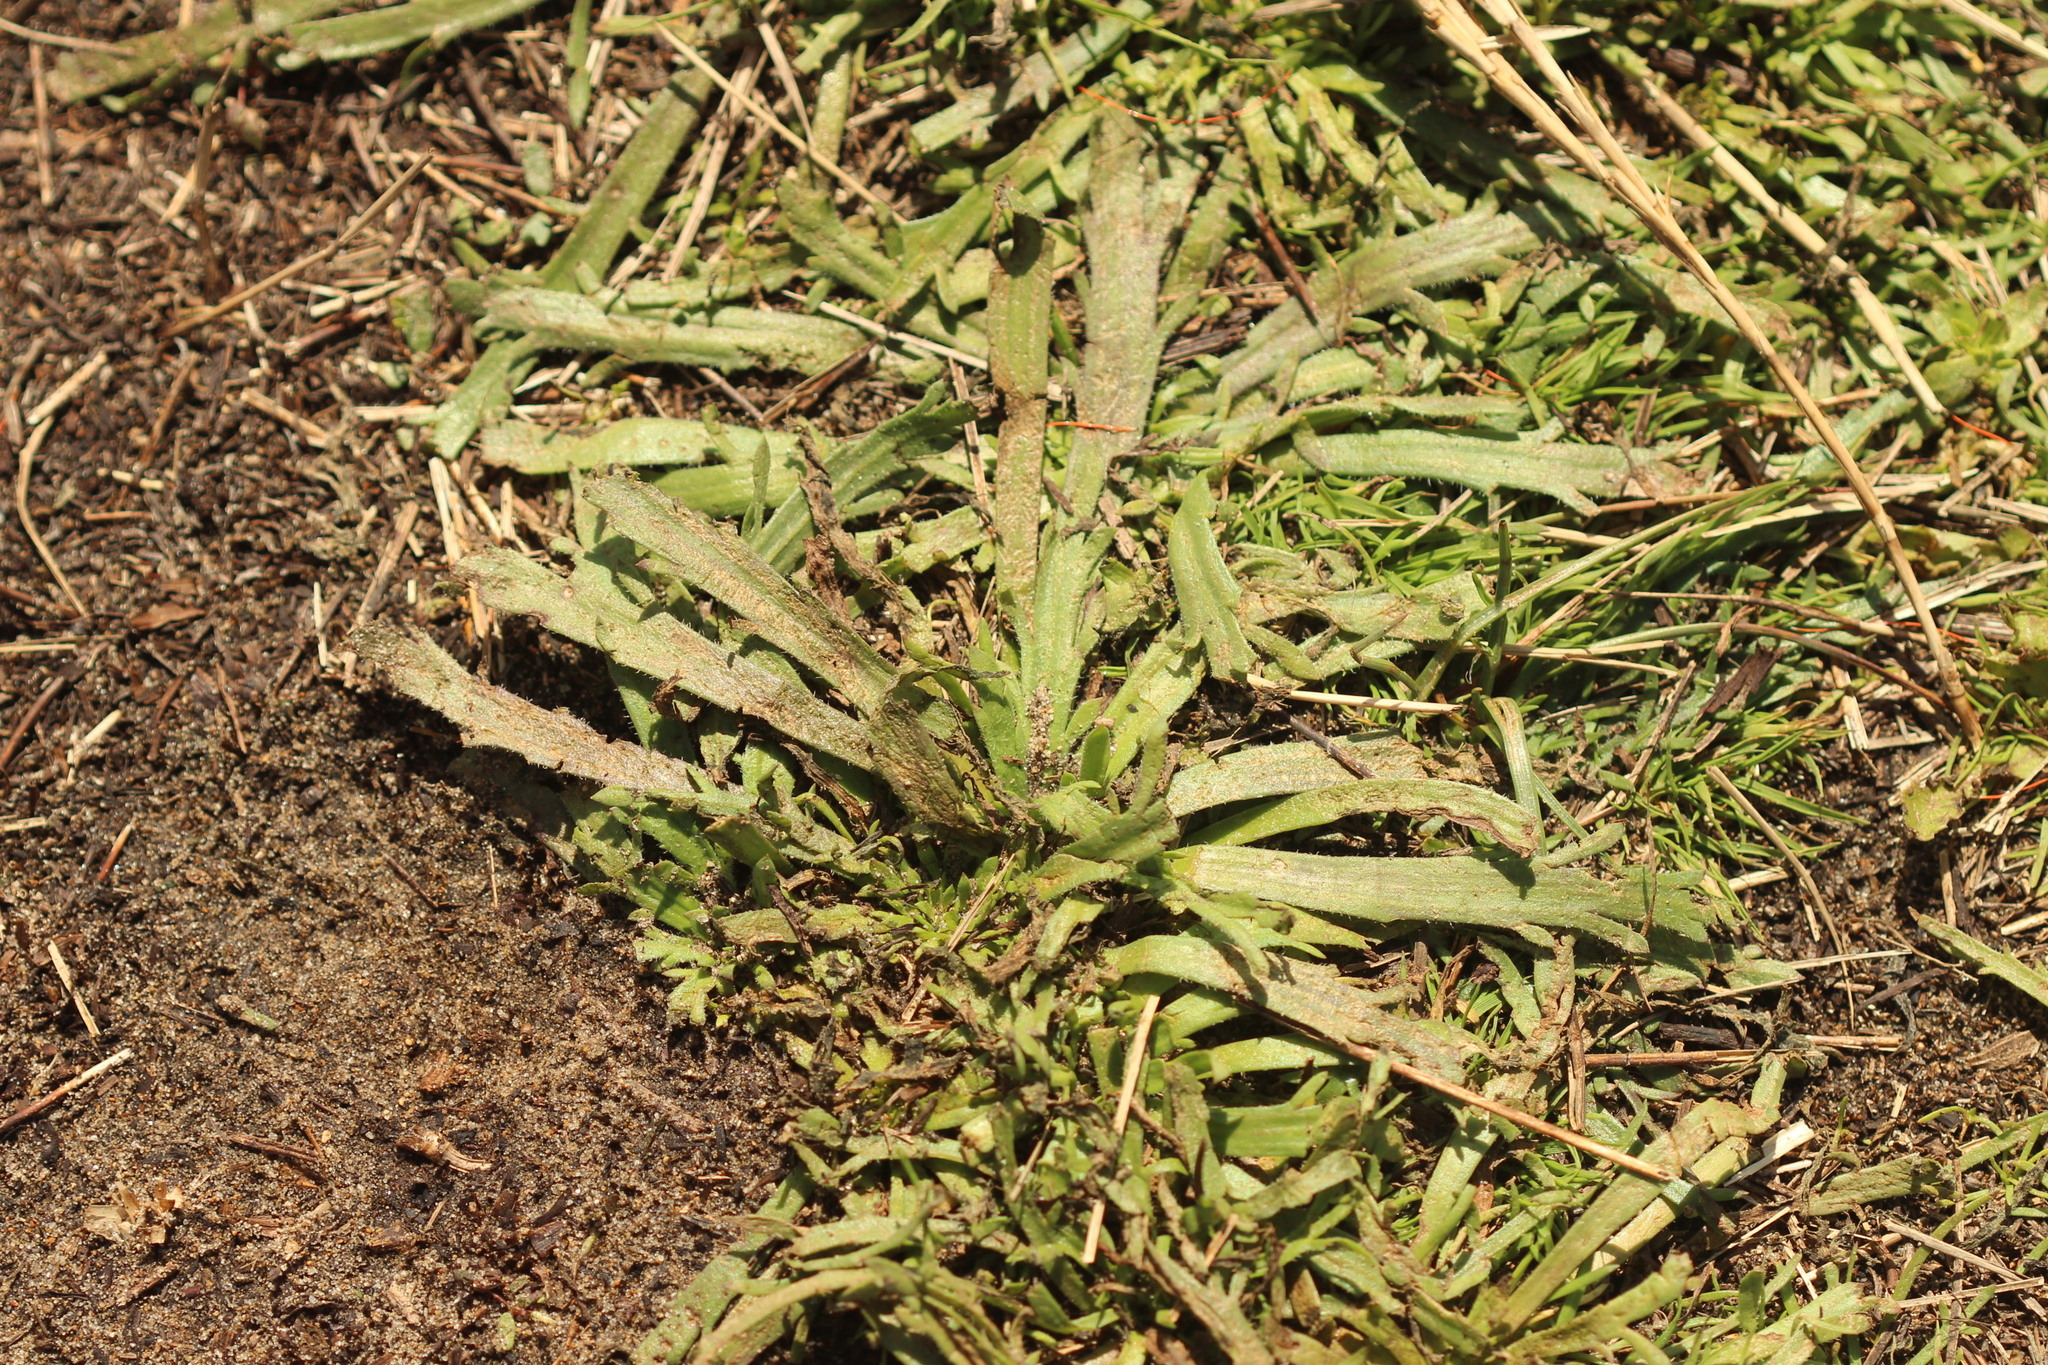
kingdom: Plantae
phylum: Tracheophyta
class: Magnoliopsida
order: Lamiales
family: Plantaginaceae
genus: Plantago
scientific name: Plantago coronopus
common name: Buck's-horn plantain
